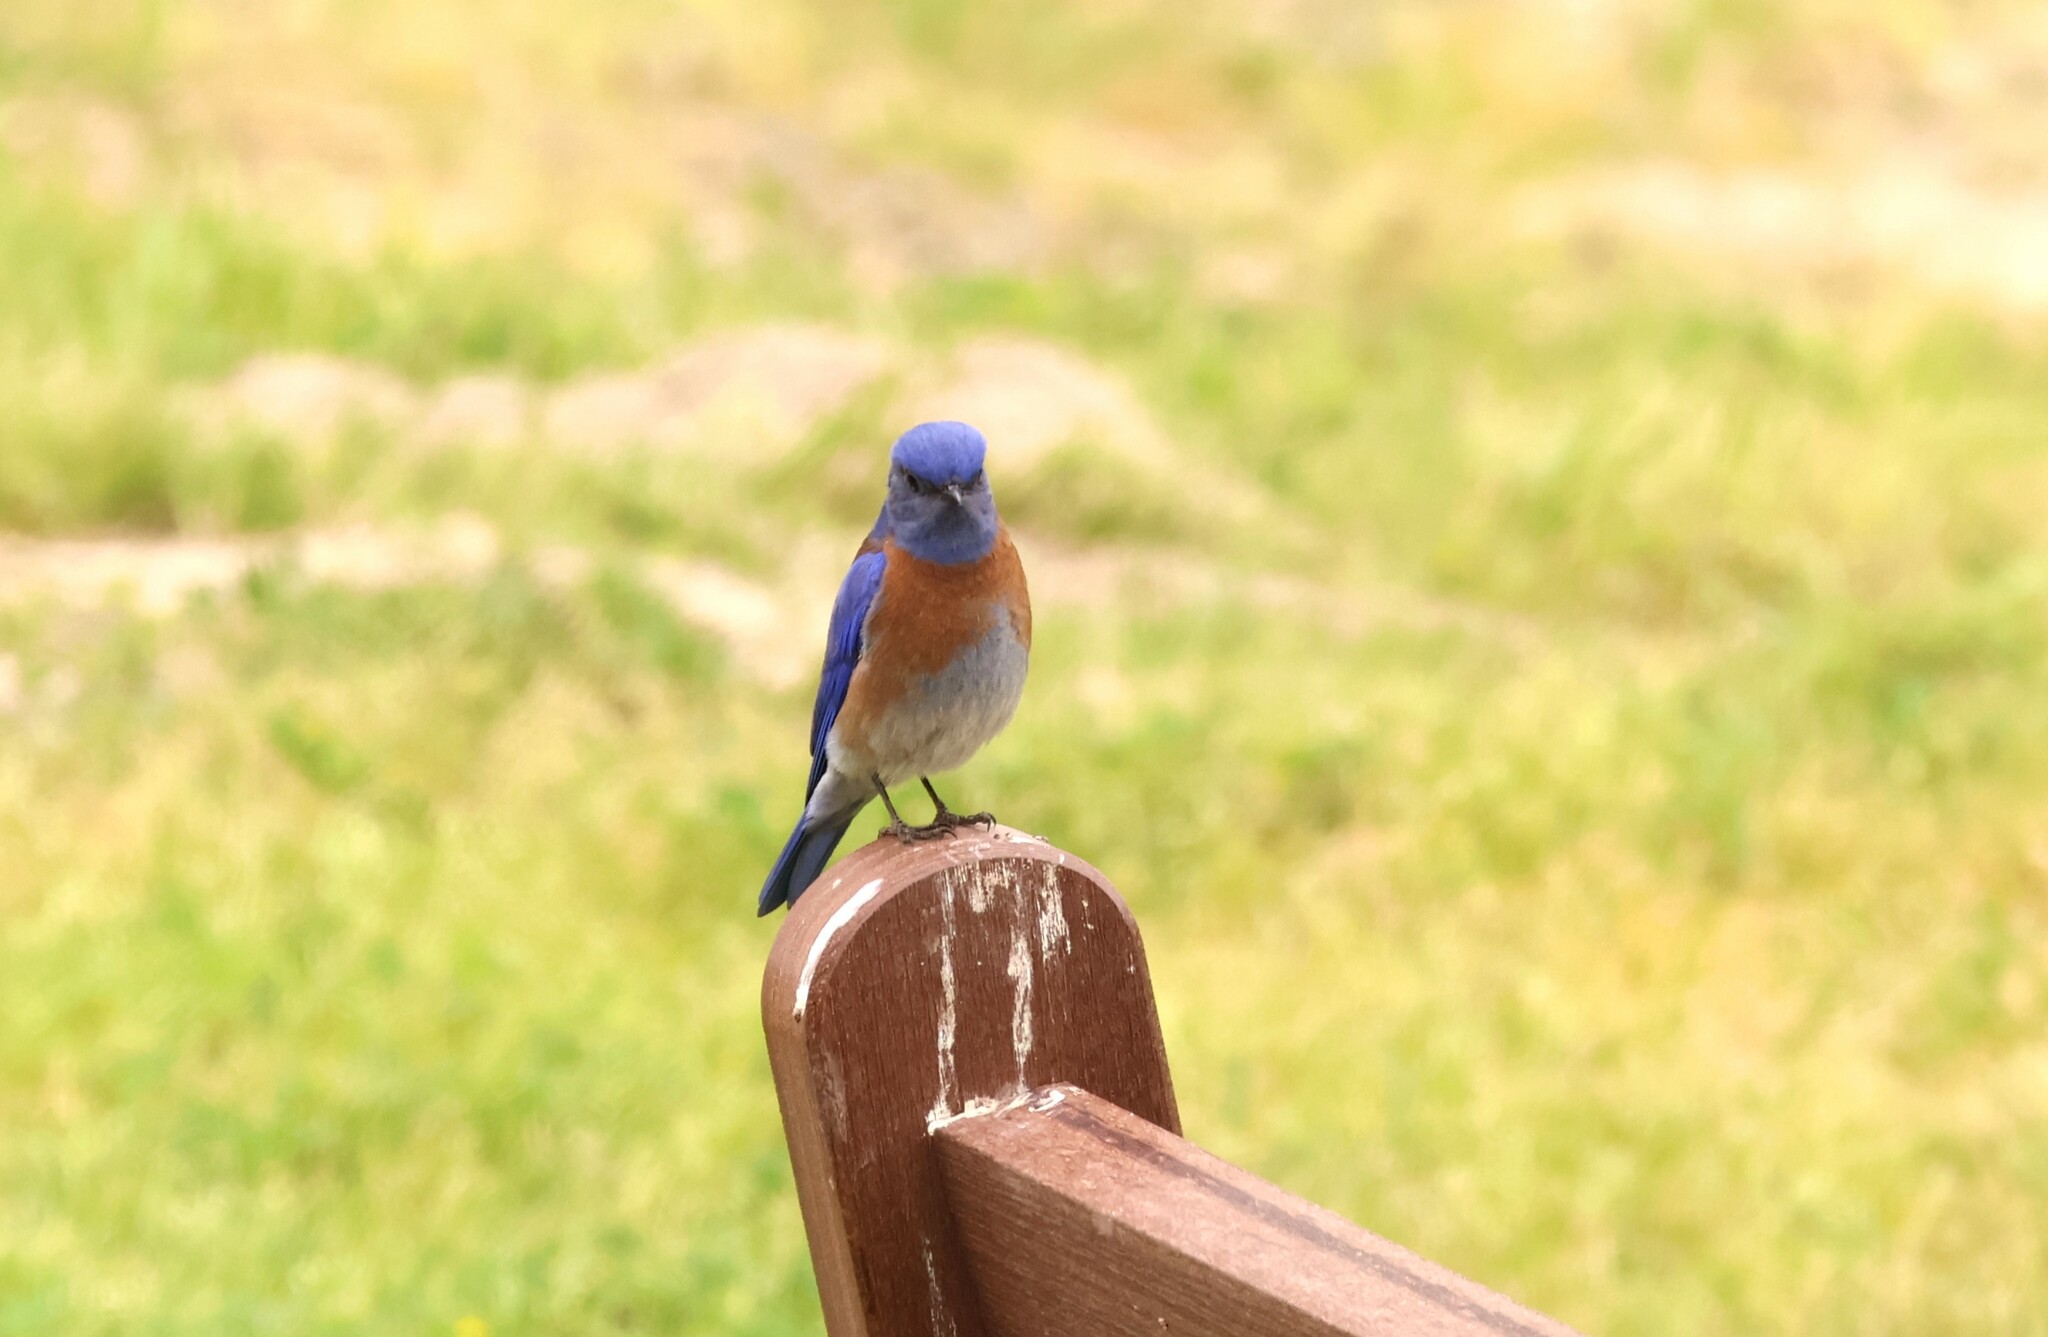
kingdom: Animalia
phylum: Chordata
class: Aves
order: Passeriformes
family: Turdidae
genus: Sialia
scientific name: Sialia mexicana
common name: Western bluebird
